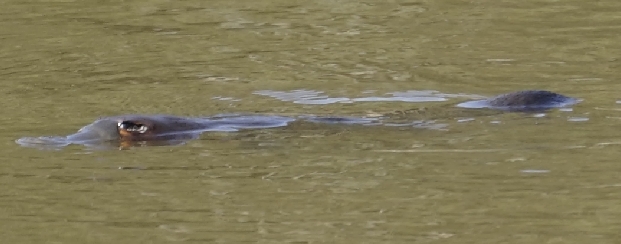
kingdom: Animalia
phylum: Chordata
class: Mammalia
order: Monotremata
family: Ornithorhynchidae
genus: Ornithorhynchus
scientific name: Ornithorhynchus anatinus
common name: Platypus
